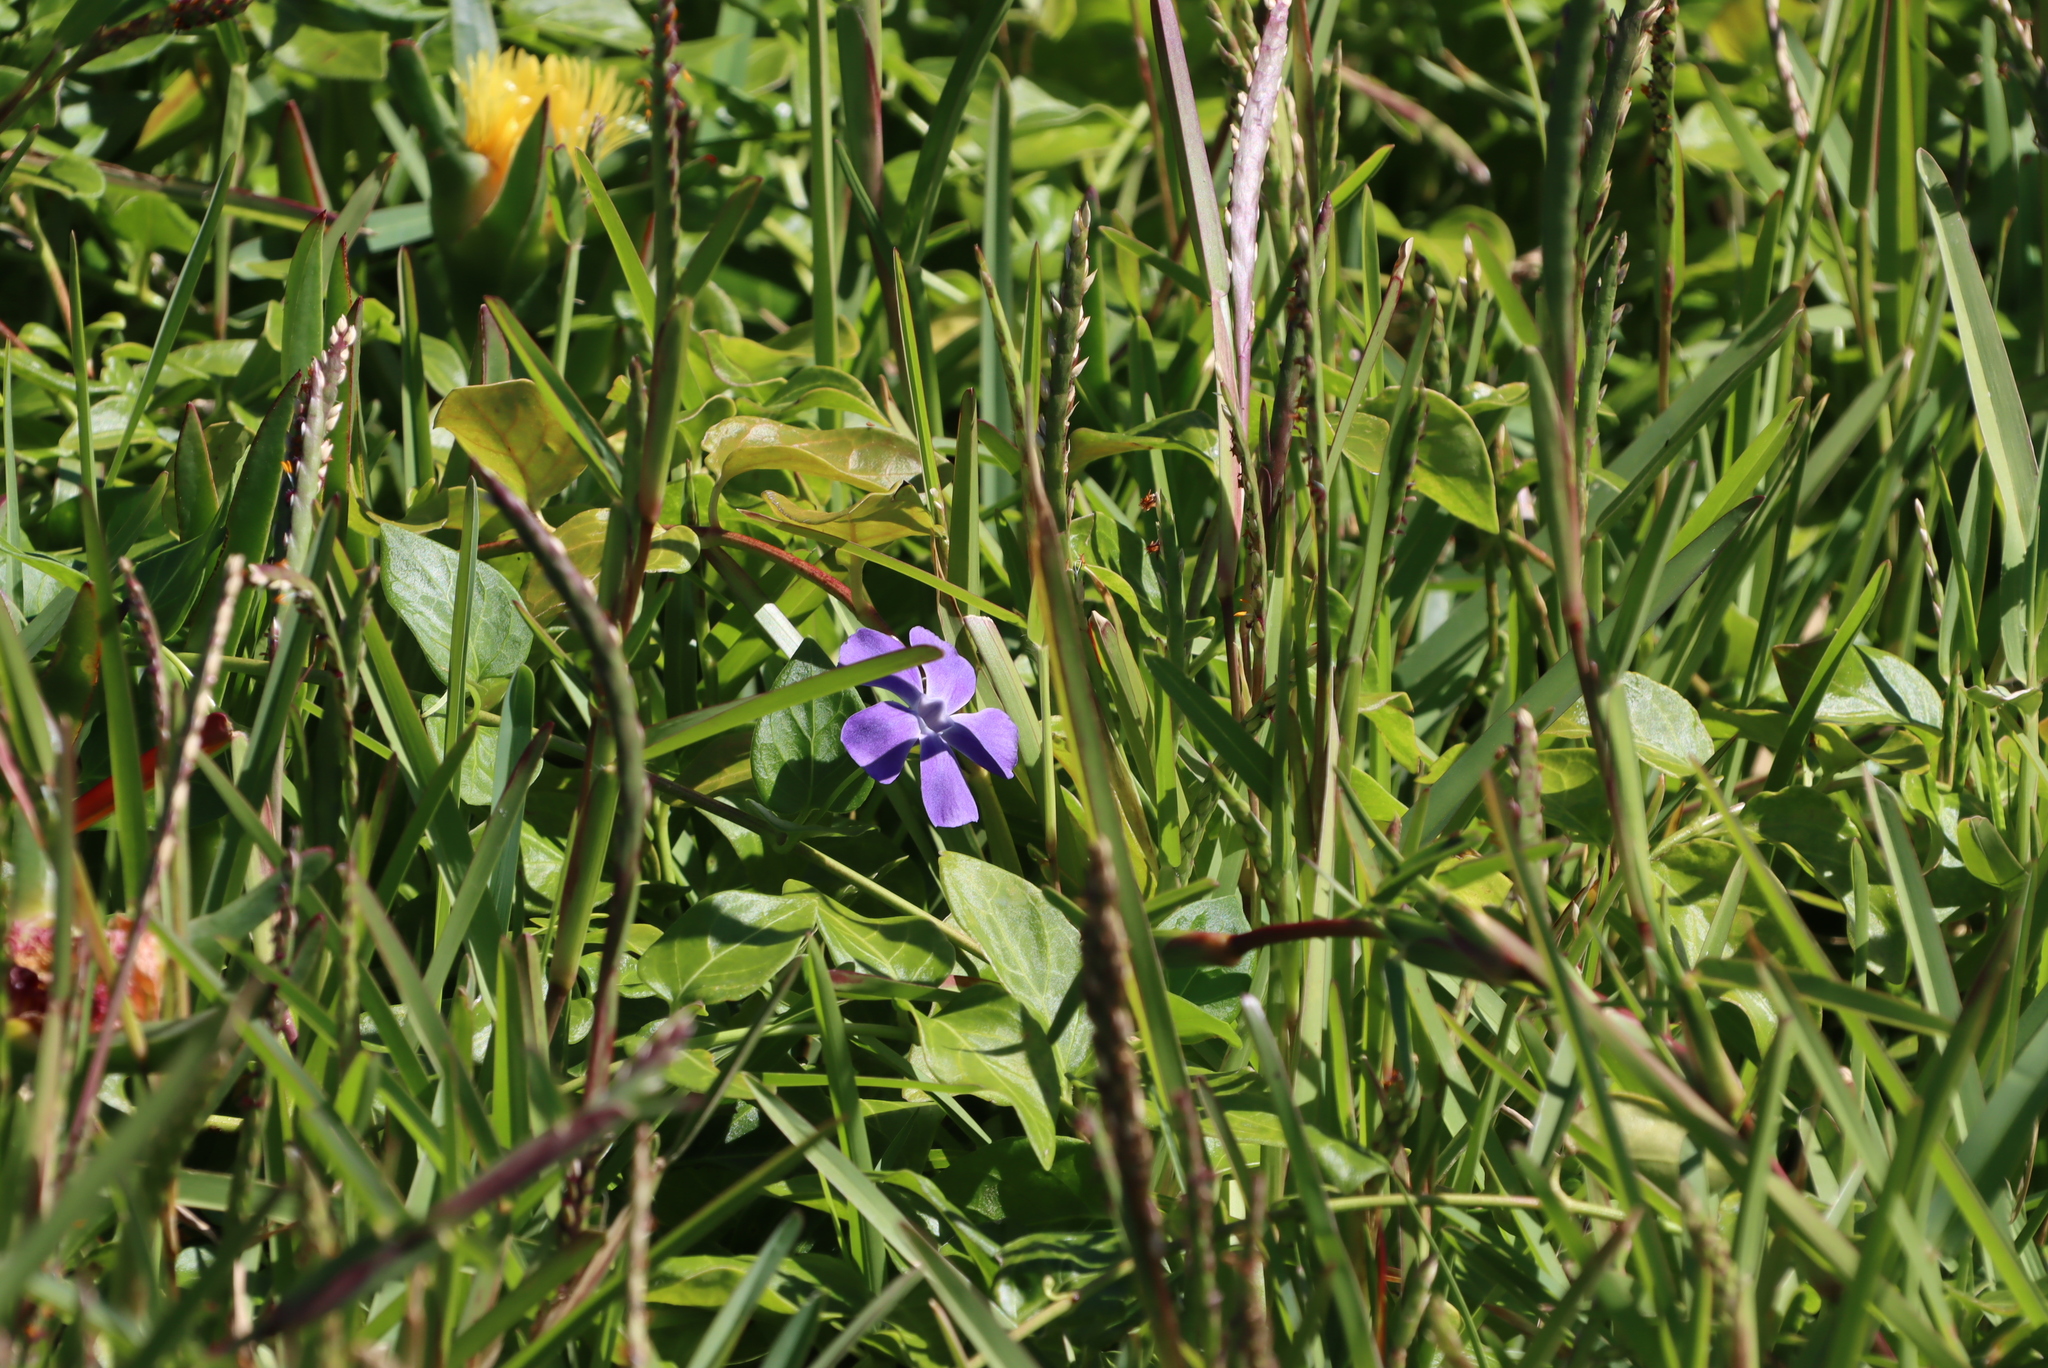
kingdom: Plantae
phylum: Tracheophyta
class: Magnoliopsida
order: Gentianales
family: Apocynaceae
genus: Vinca
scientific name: Vinca major
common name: Greater periwinkle
